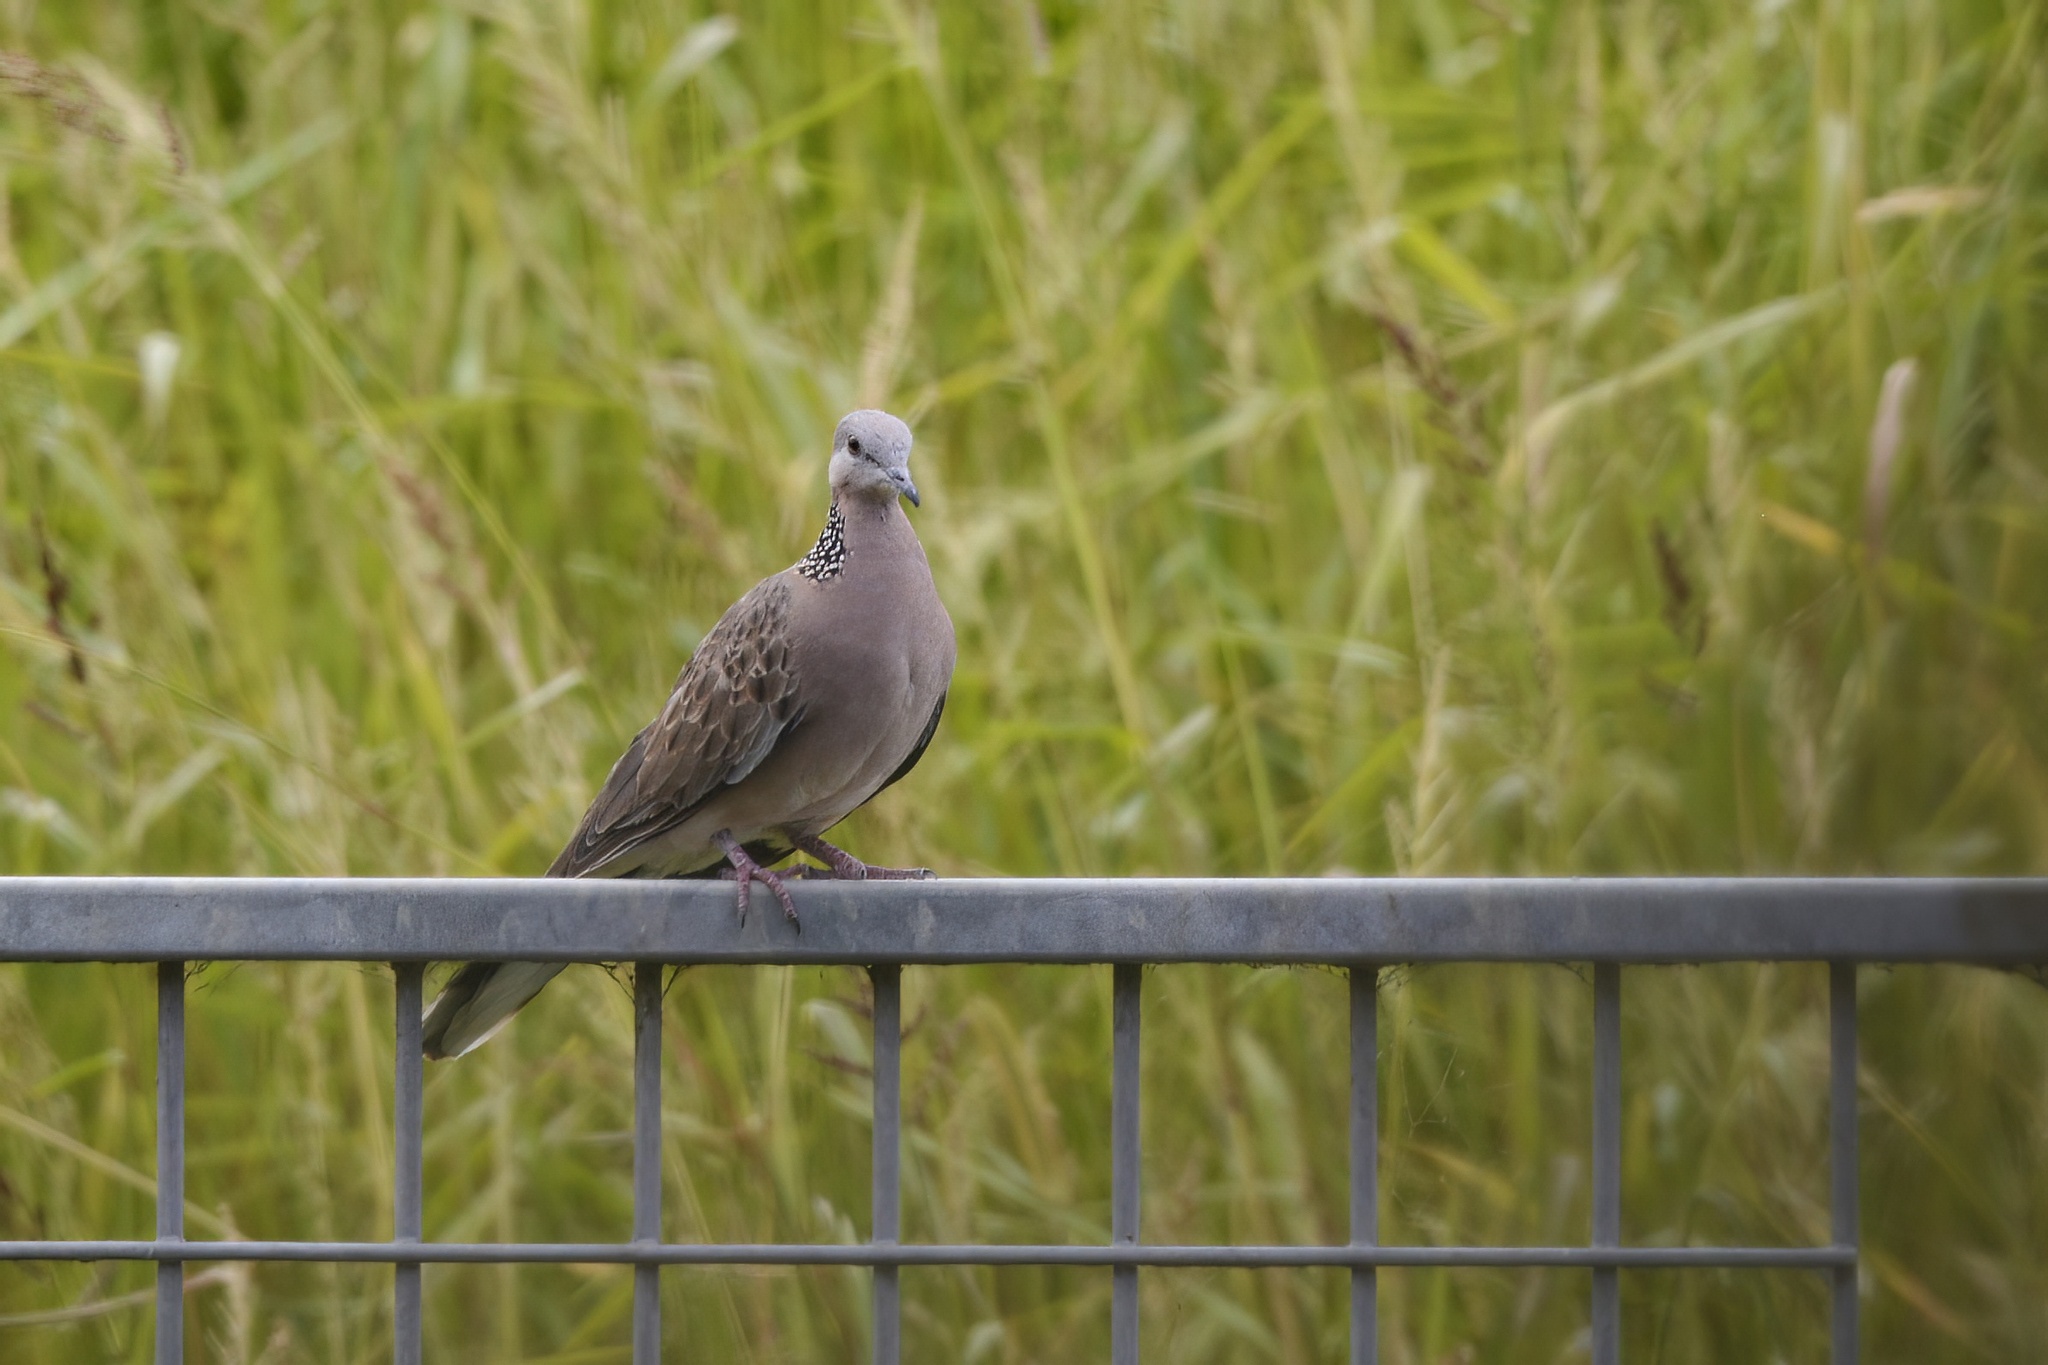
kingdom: Animalia
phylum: Chordata
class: Aves
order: Columbiformes
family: Columbidae
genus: Spilopelia
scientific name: Spilopelia chinensis
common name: Spotted dove
